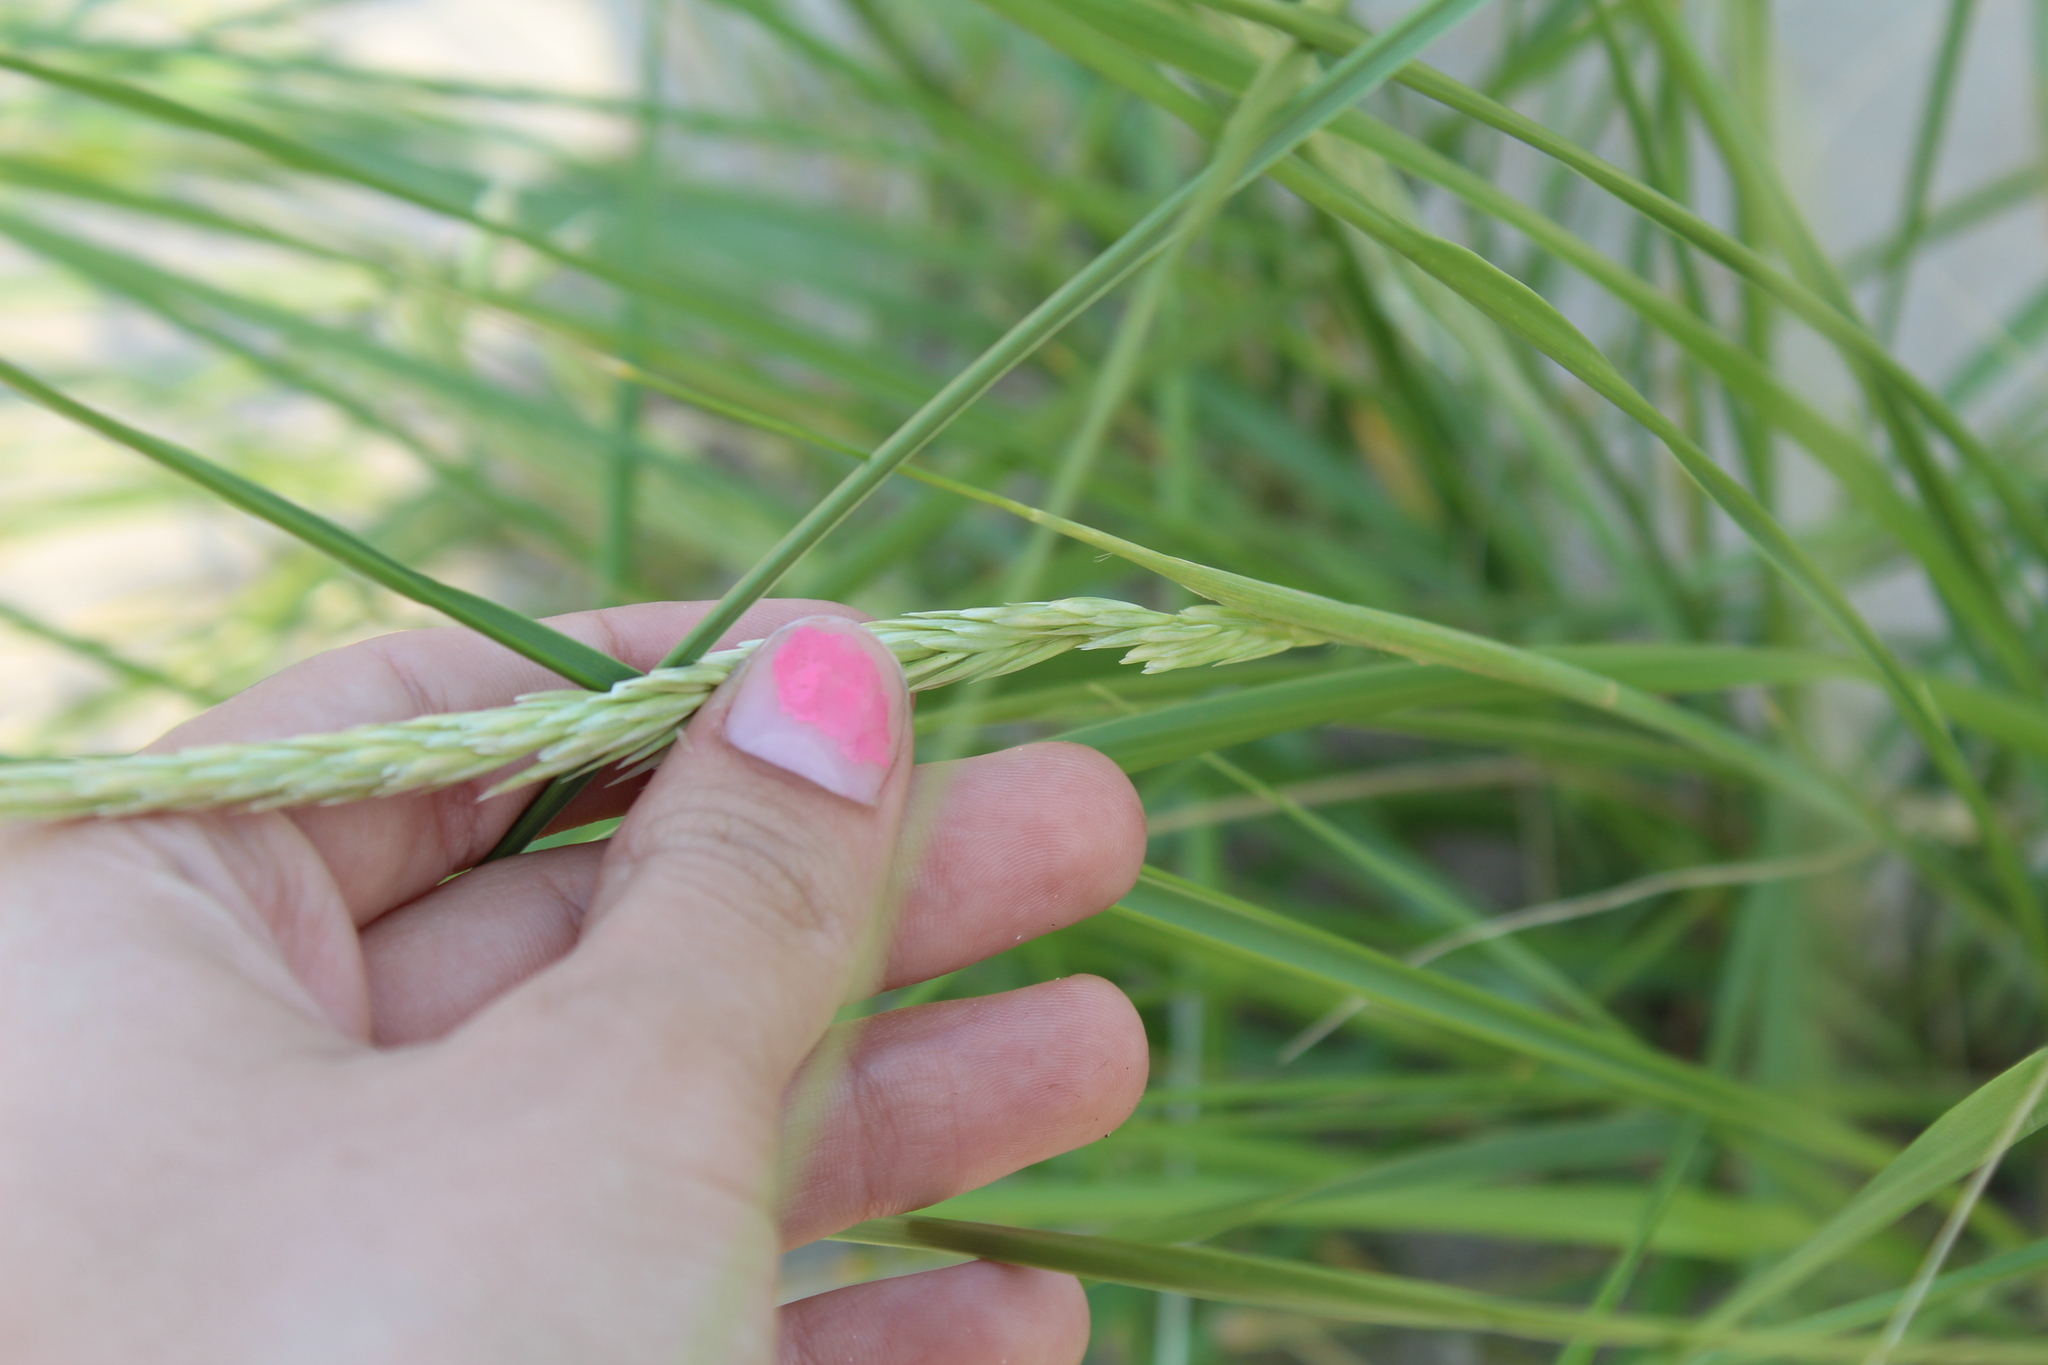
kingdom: Plantae
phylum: Tracheophyta
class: Liliopsida
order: Poales
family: Poaceae
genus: Calamagrostis
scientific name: Calamagrostis breviligulata
